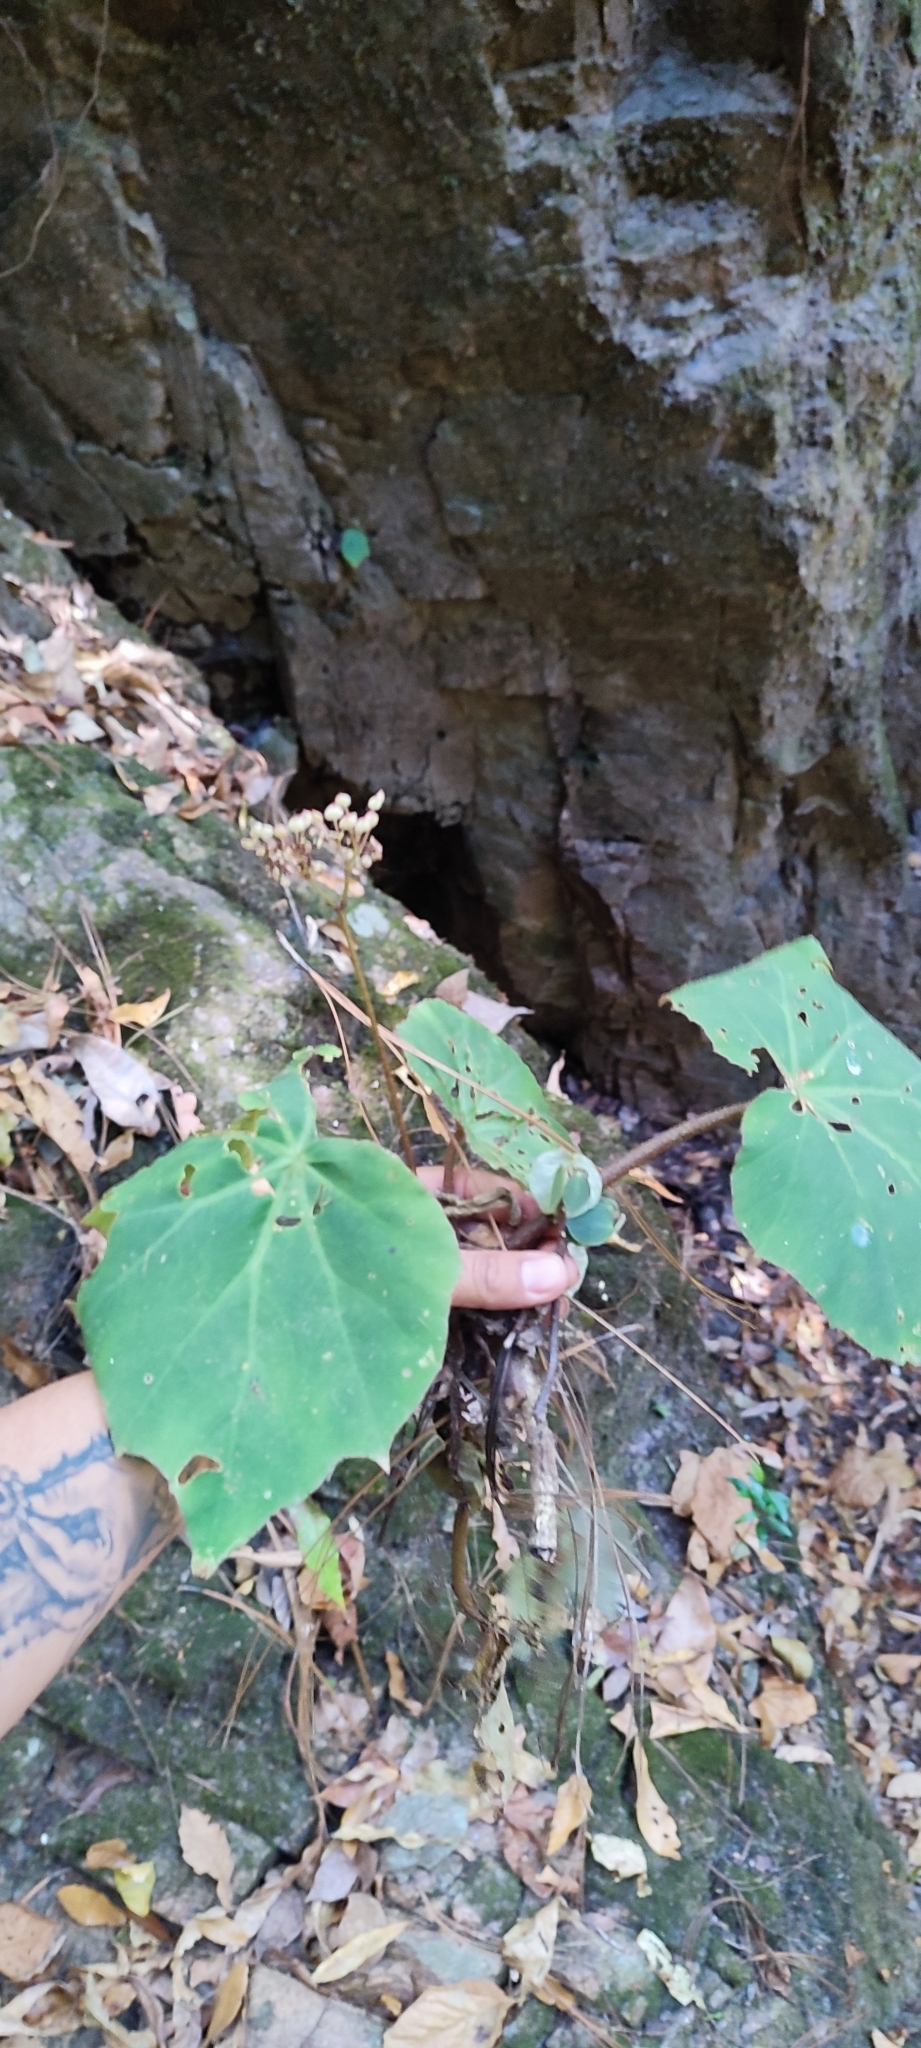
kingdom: Plantae
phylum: Tracheophyta
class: Magnoliopsida
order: Cucurbitales
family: Begoniaceae
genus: Begonia
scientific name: Begonia stigmosa
